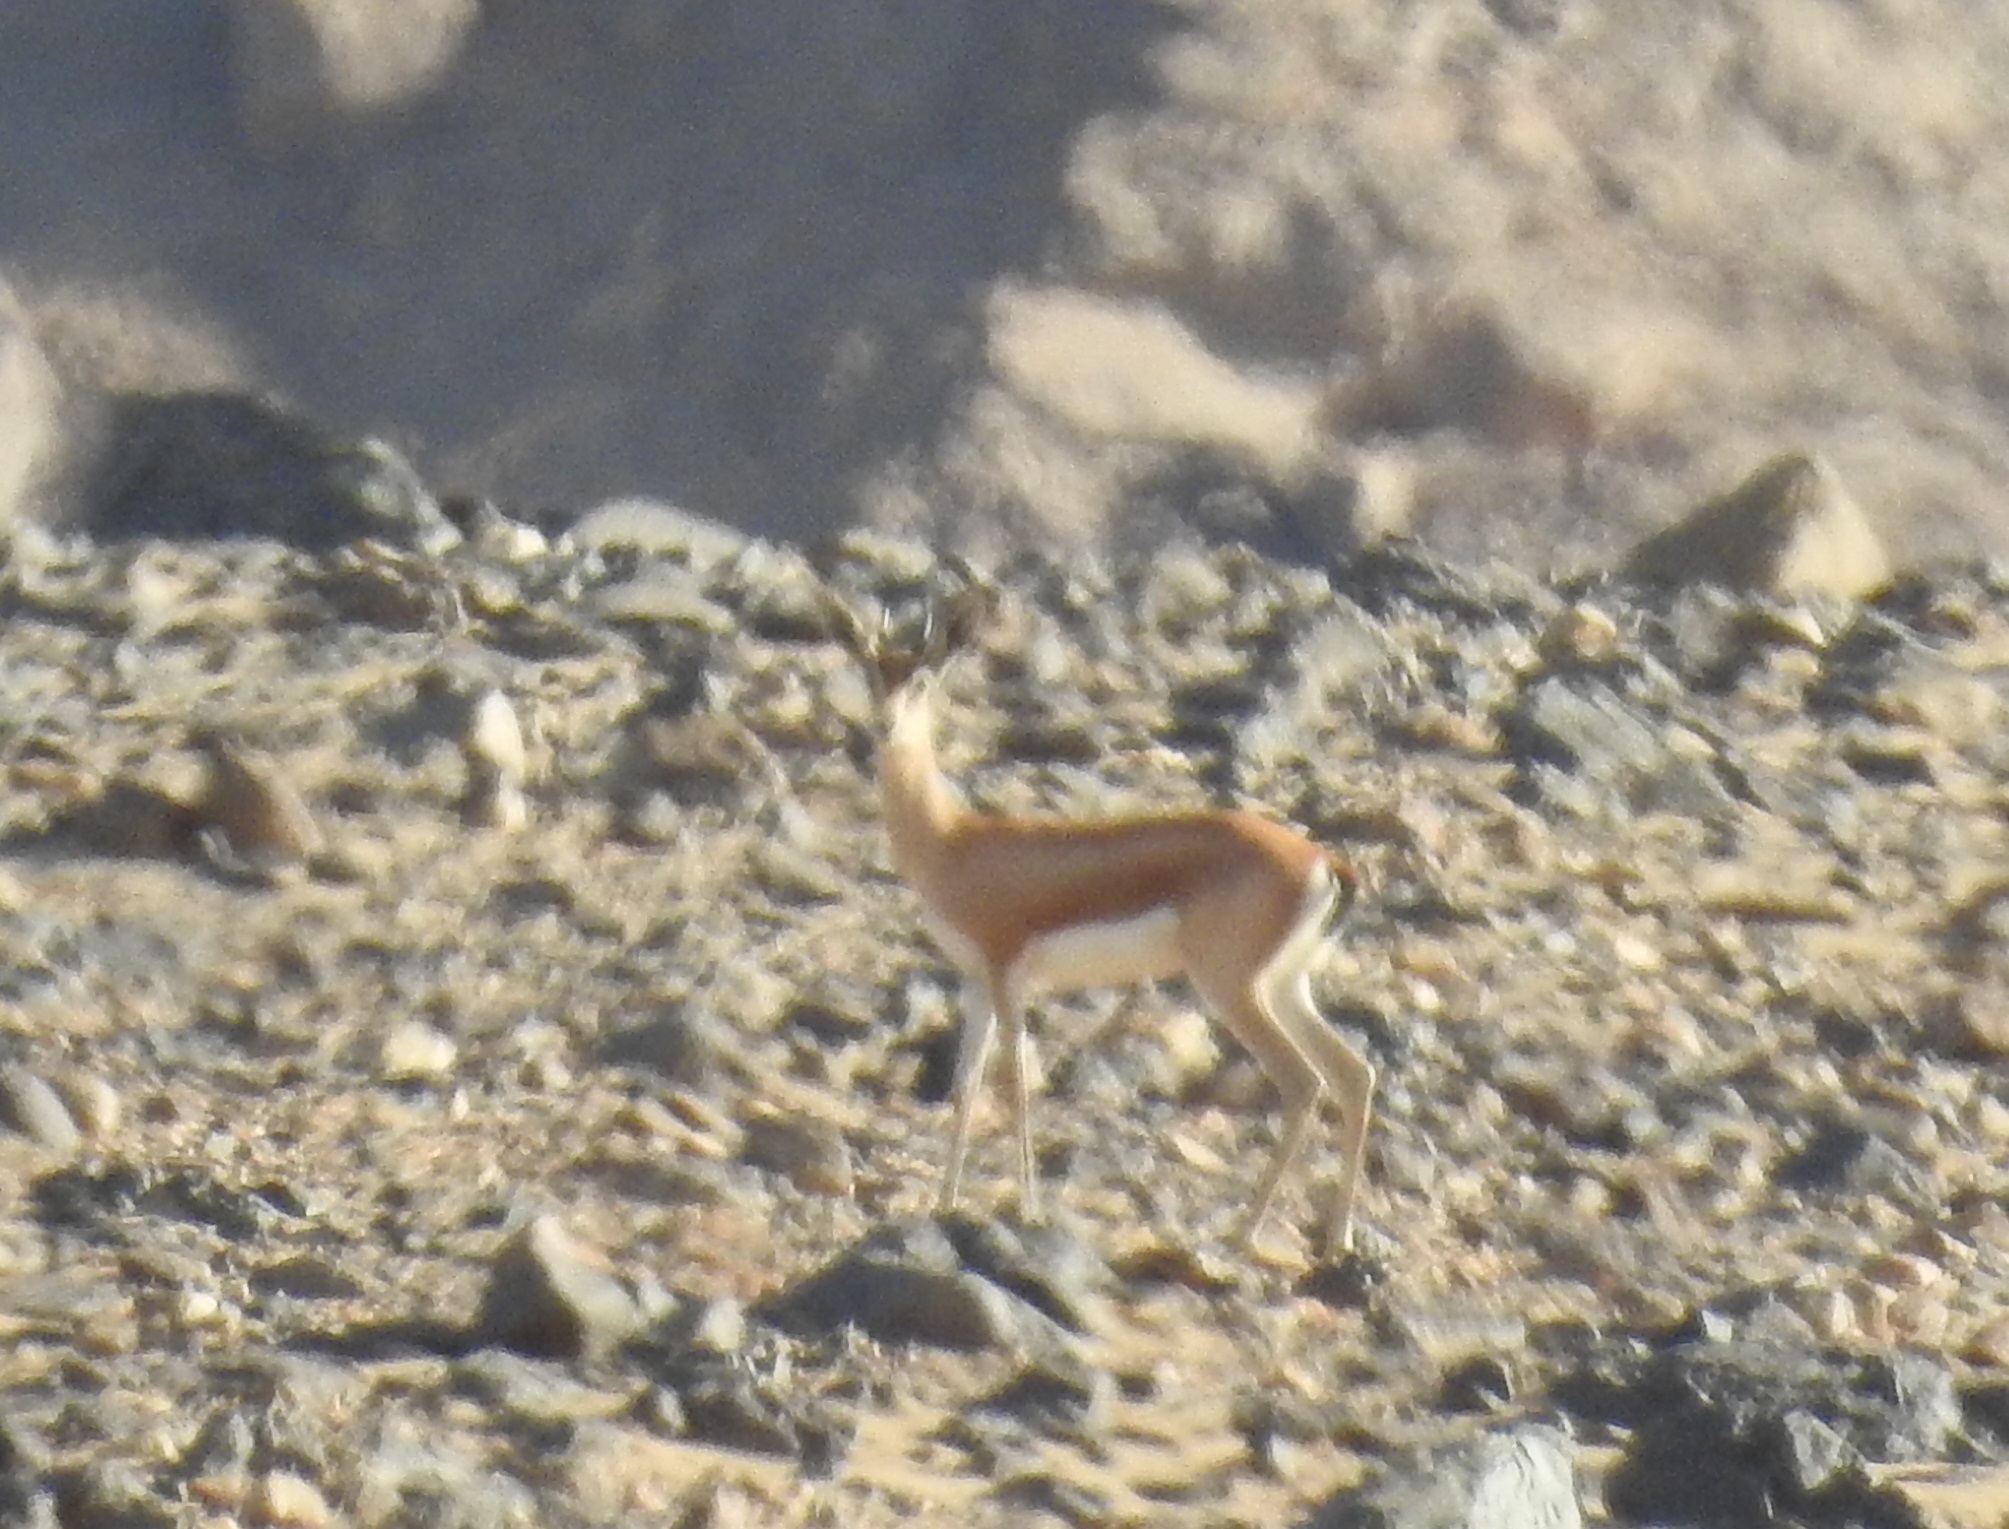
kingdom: Animalia
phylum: Chordata
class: Mammalia
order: Artiodactyla
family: Bovidae
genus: Gazella
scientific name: Gazella dorcas
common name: Dorcas gazelle
